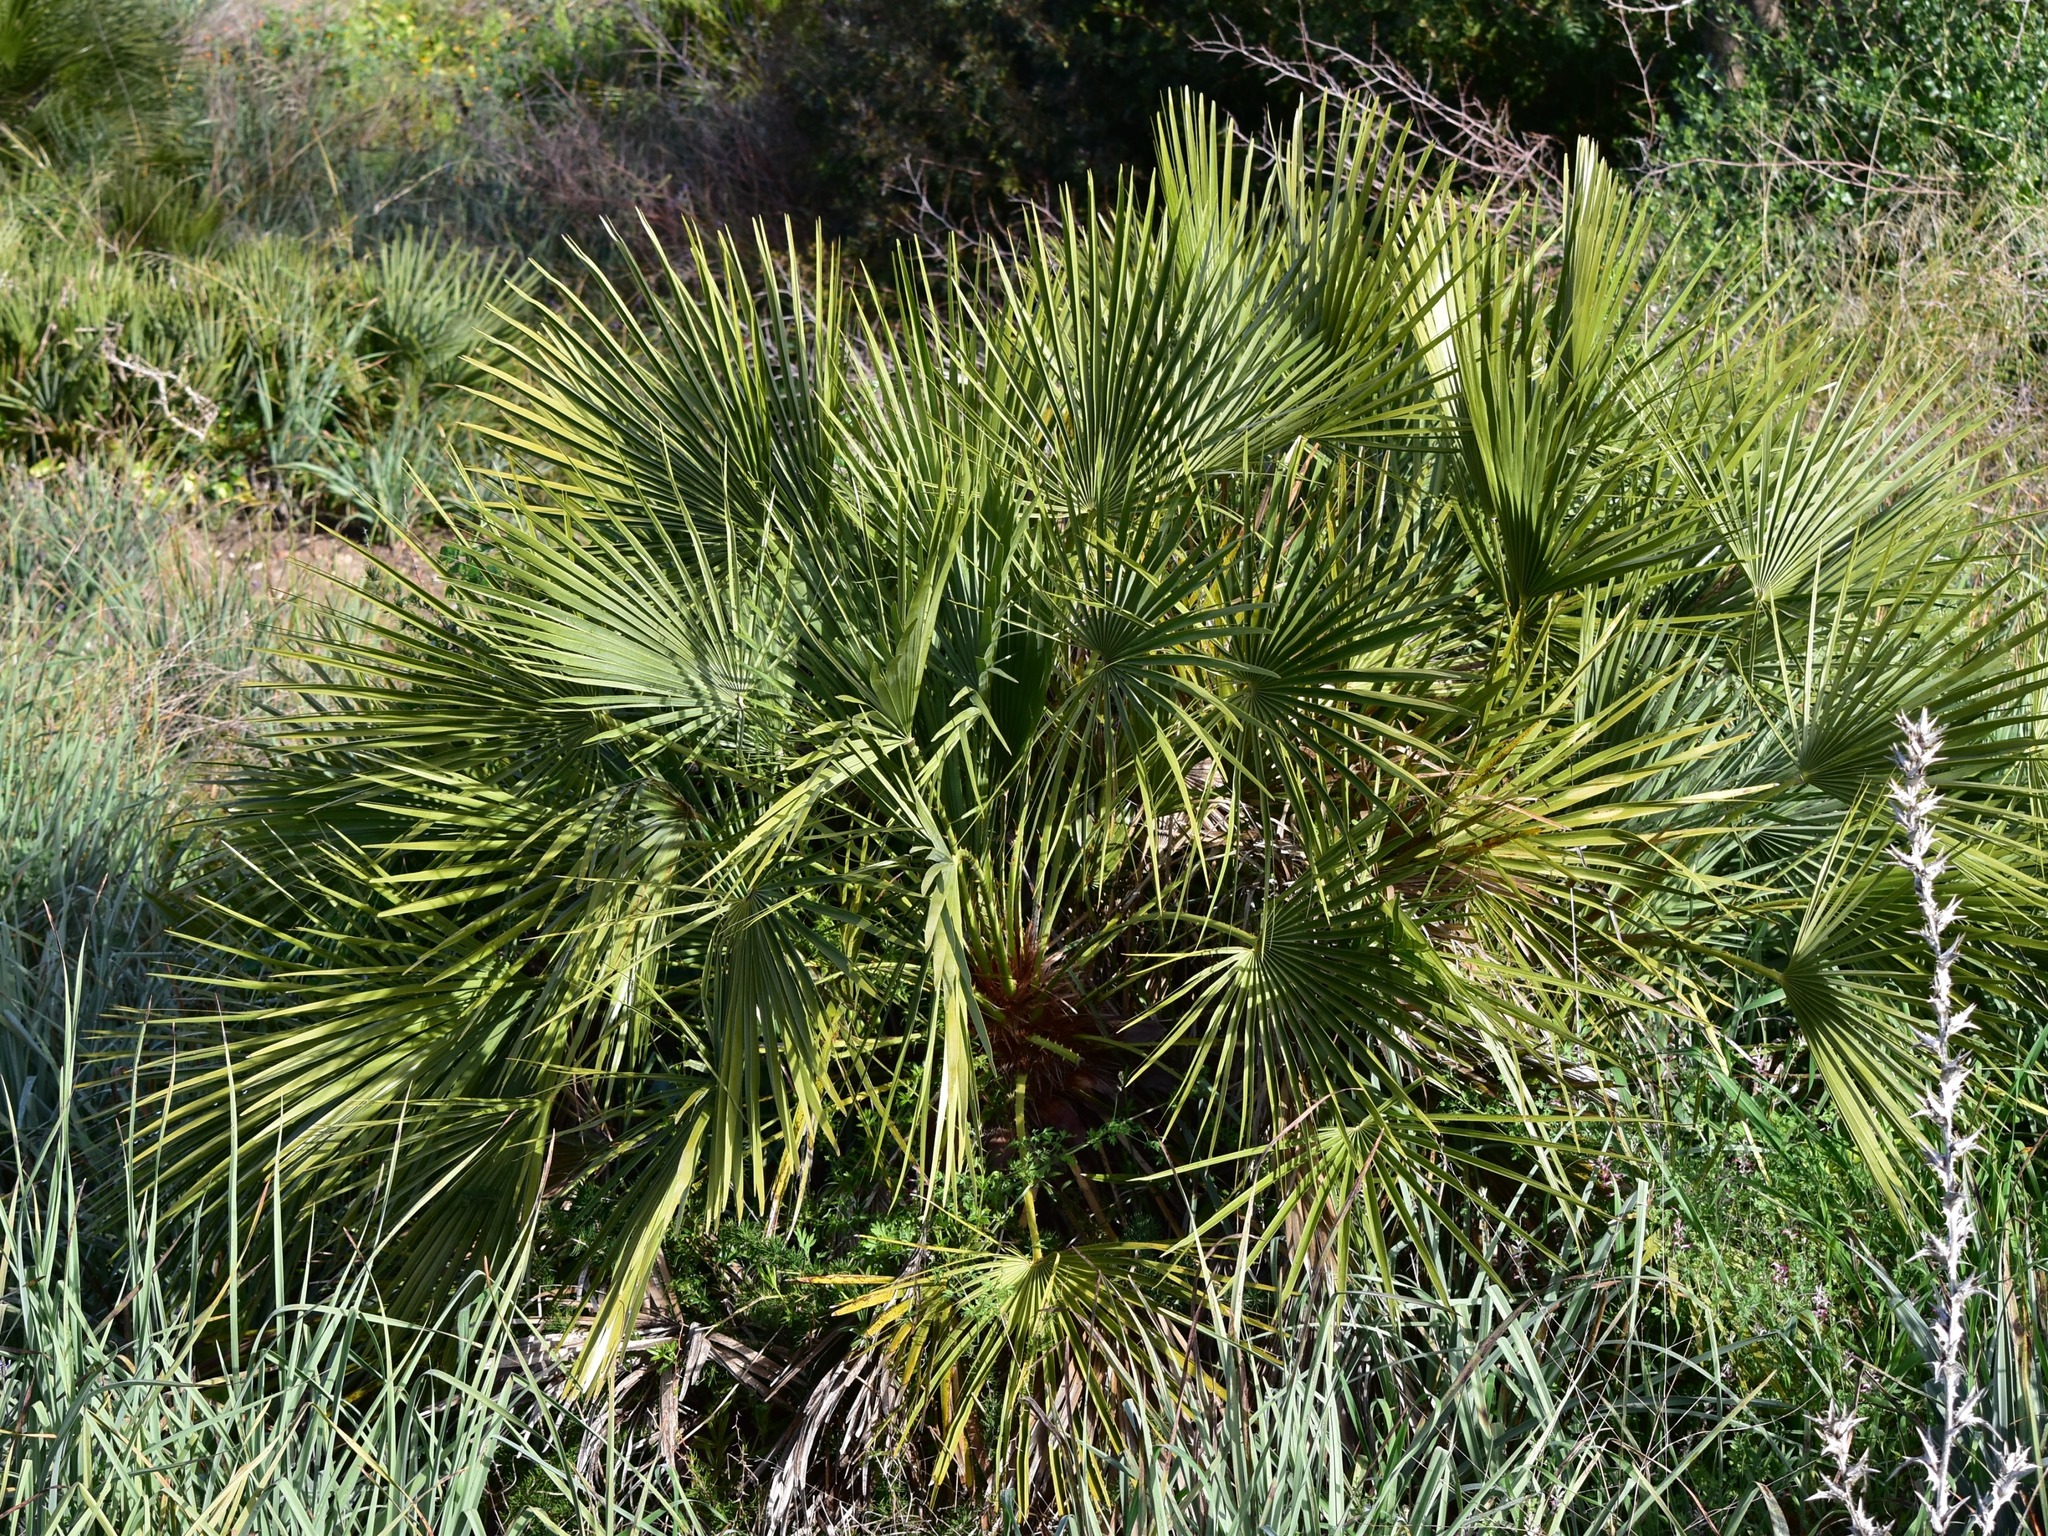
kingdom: Plantae
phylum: Tracheophyta
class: Liliopsida
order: Arecales
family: Arecaceae
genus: Chamaerops
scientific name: Chamaerops humilis
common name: Dwarf fan palm
